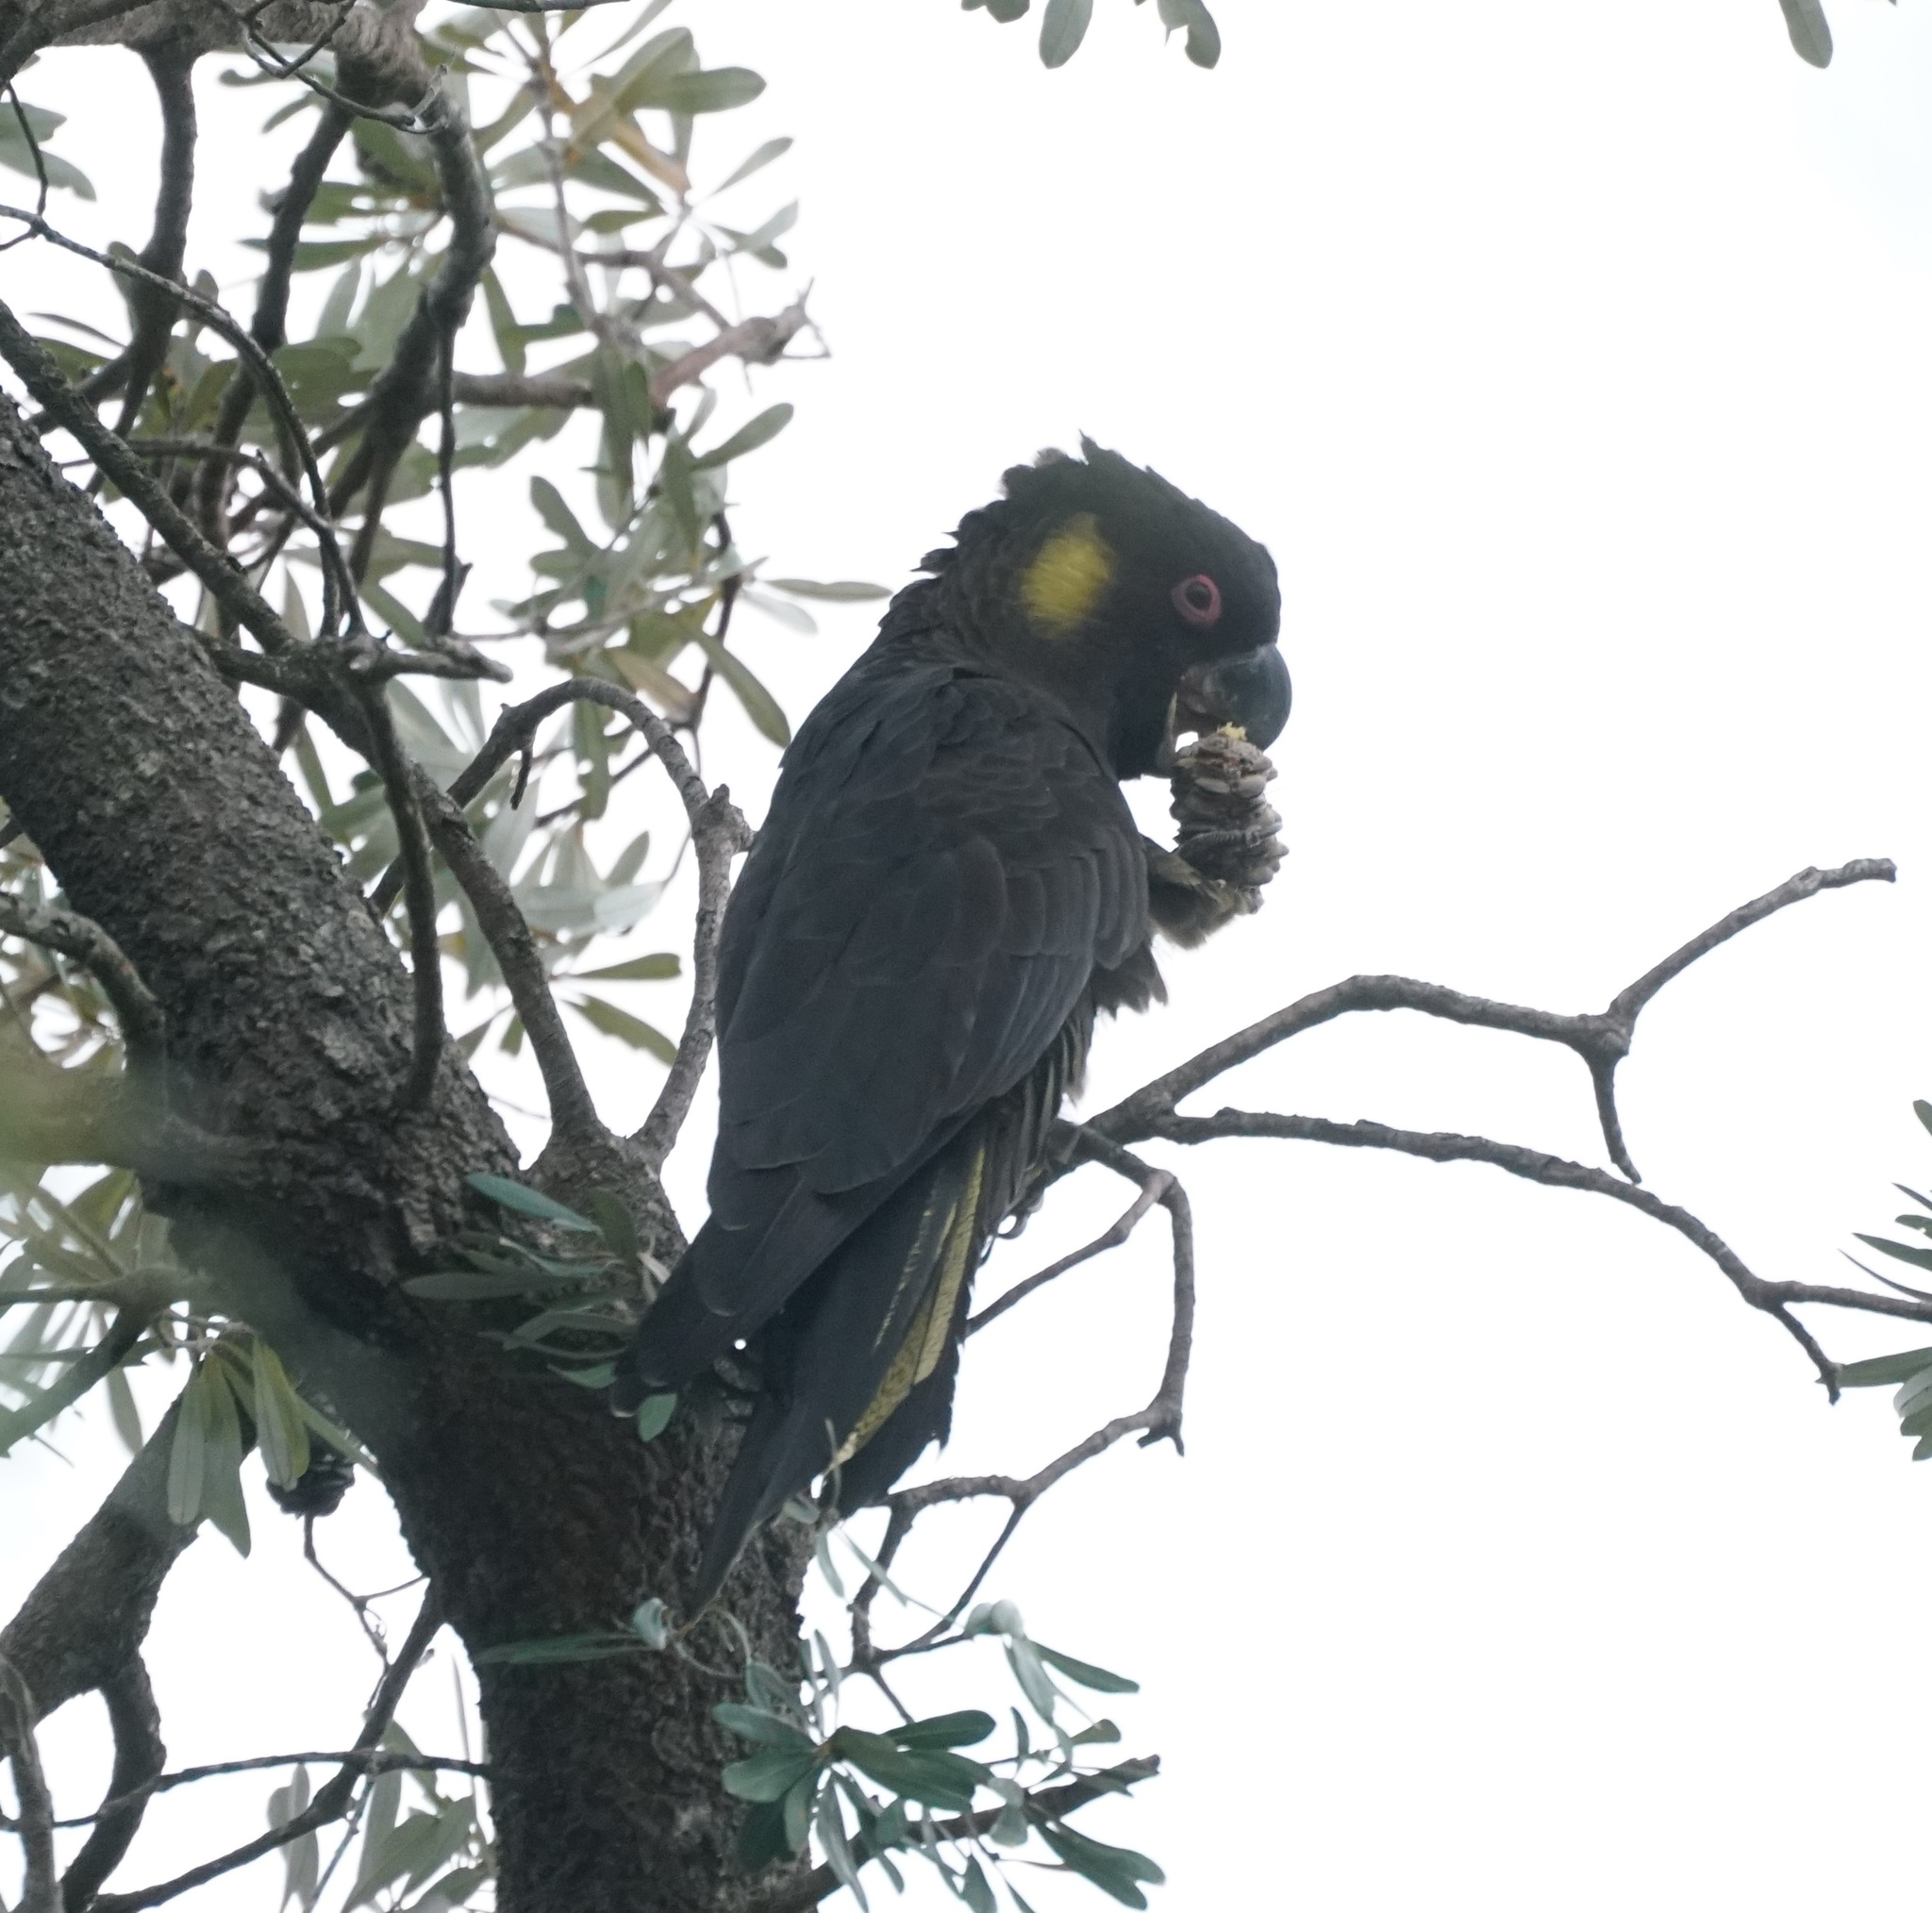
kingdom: Animalia
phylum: Chordata
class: Aves
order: Psittaciformes
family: Cacatuidae
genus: Zanda
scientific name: Zanda funerea
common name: Yellow-tailed black-cockatoo
